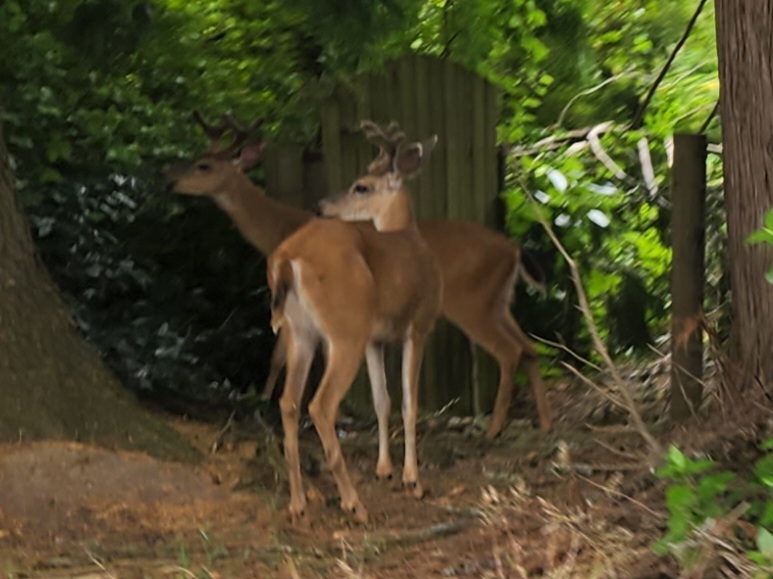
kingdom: Animalia
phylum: Chordata
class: Mammalia
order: Artiodactyla
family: Cervidae
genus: Odocoileus
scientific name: Odocoileus hemionus
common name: Mule deer
